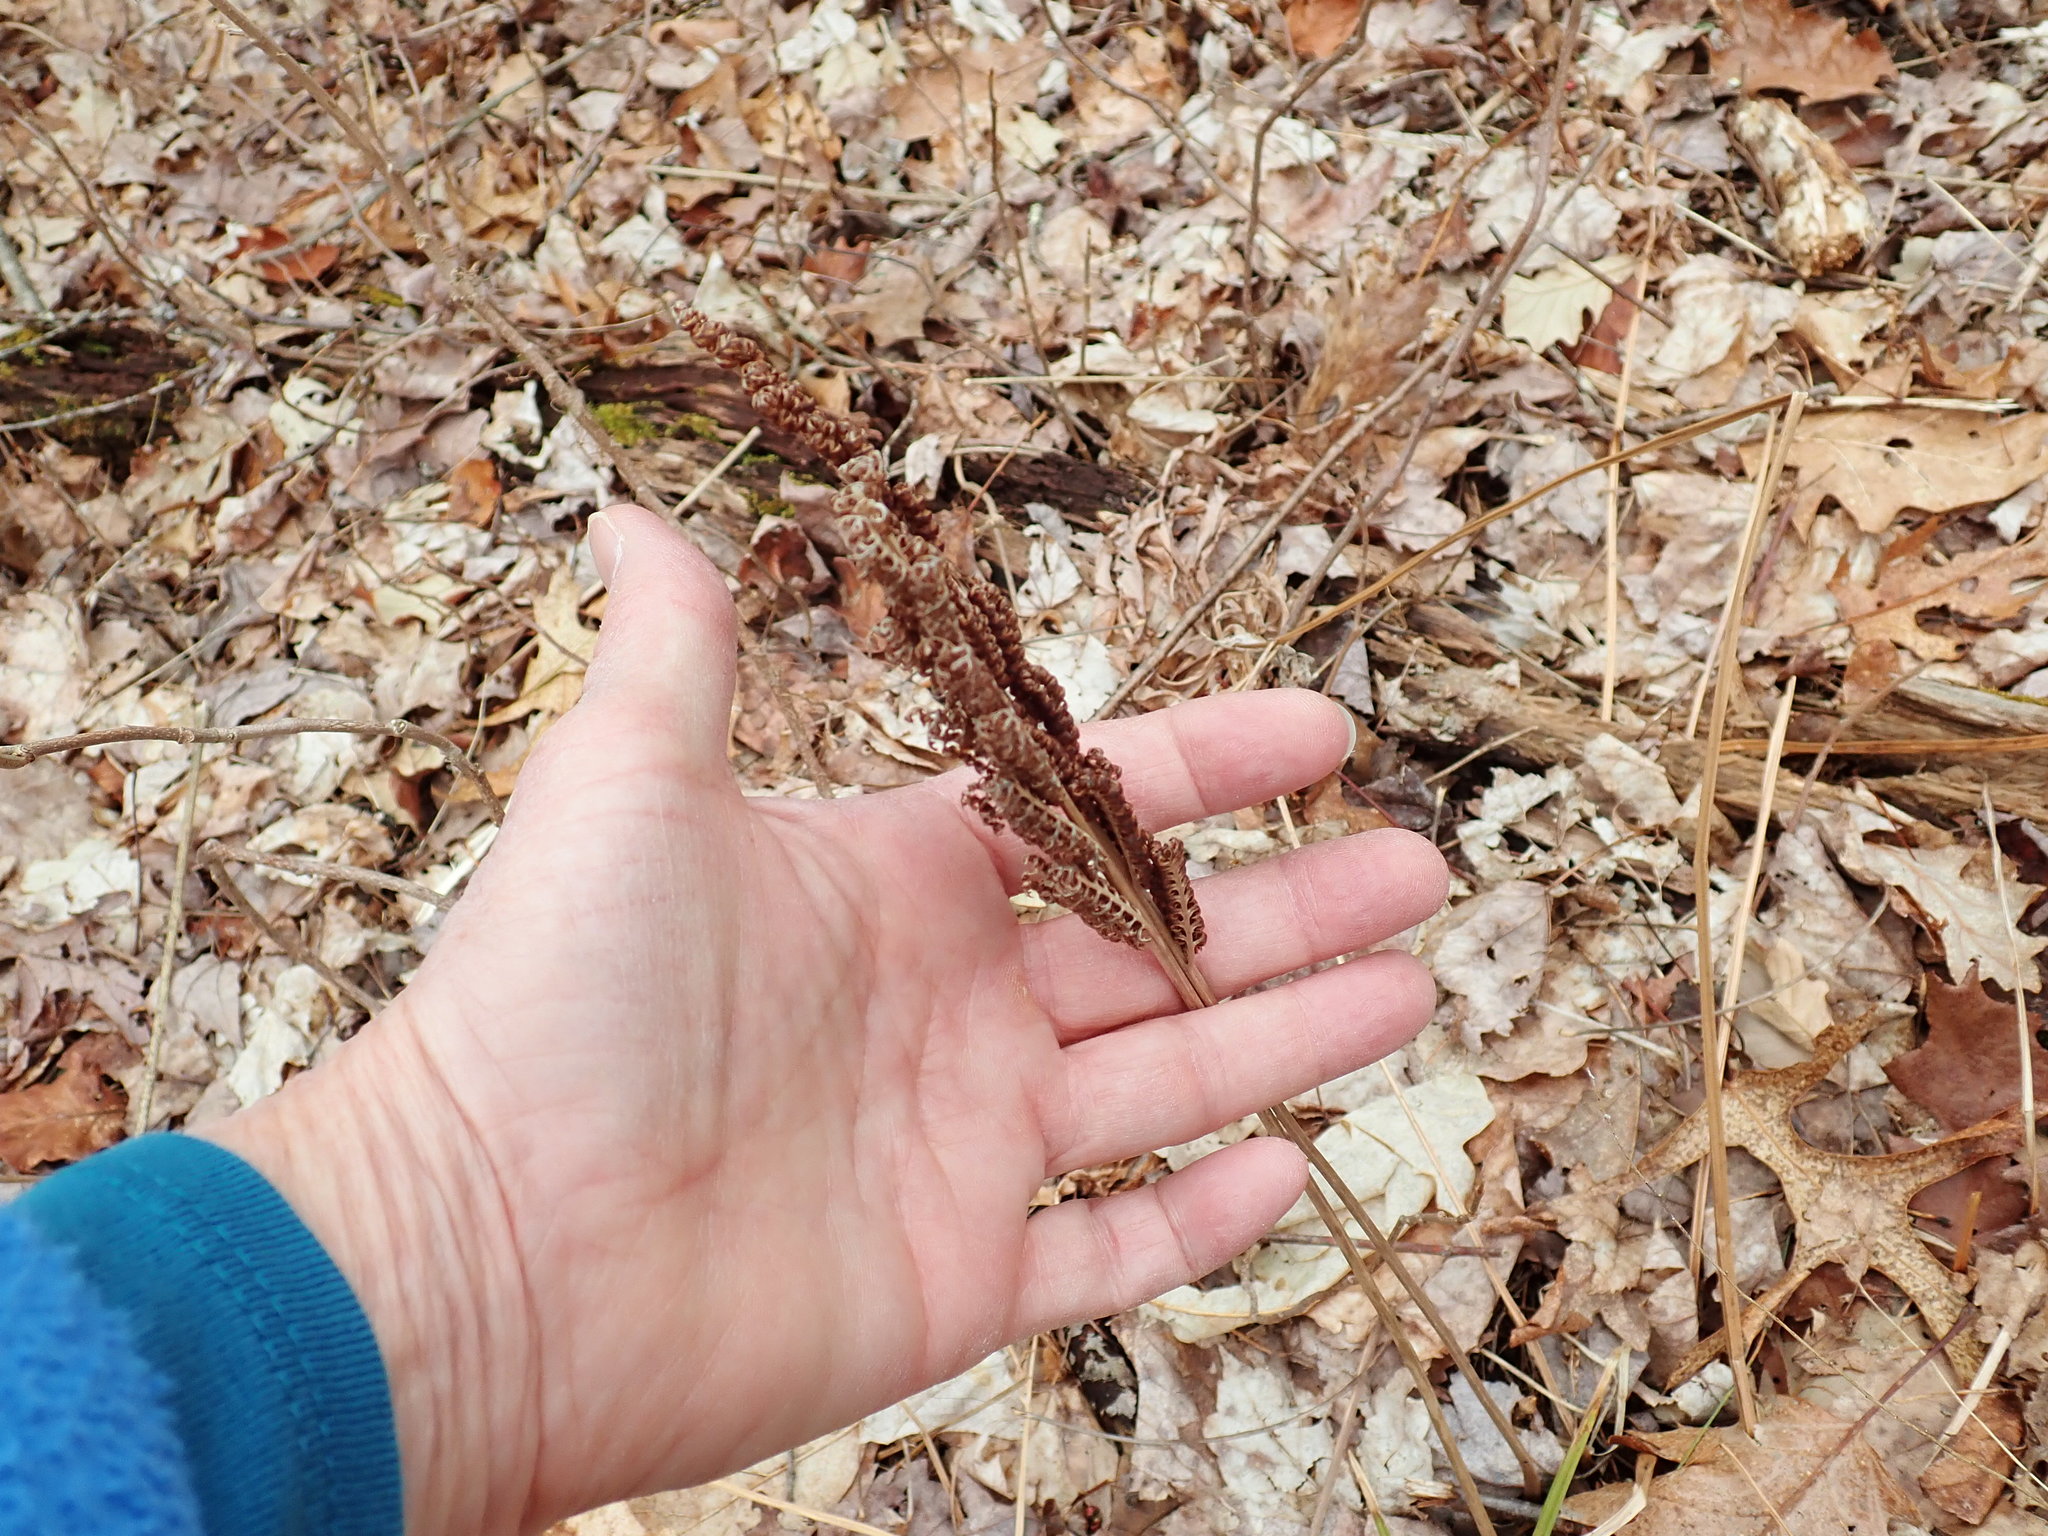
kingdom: Plantae
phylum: Tracheophyta
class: Polypodiopsida
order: Polypodiales
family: Onocleaceae
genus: Onoclea
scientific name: Onoclea sensibilis
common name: Sensitive fern
